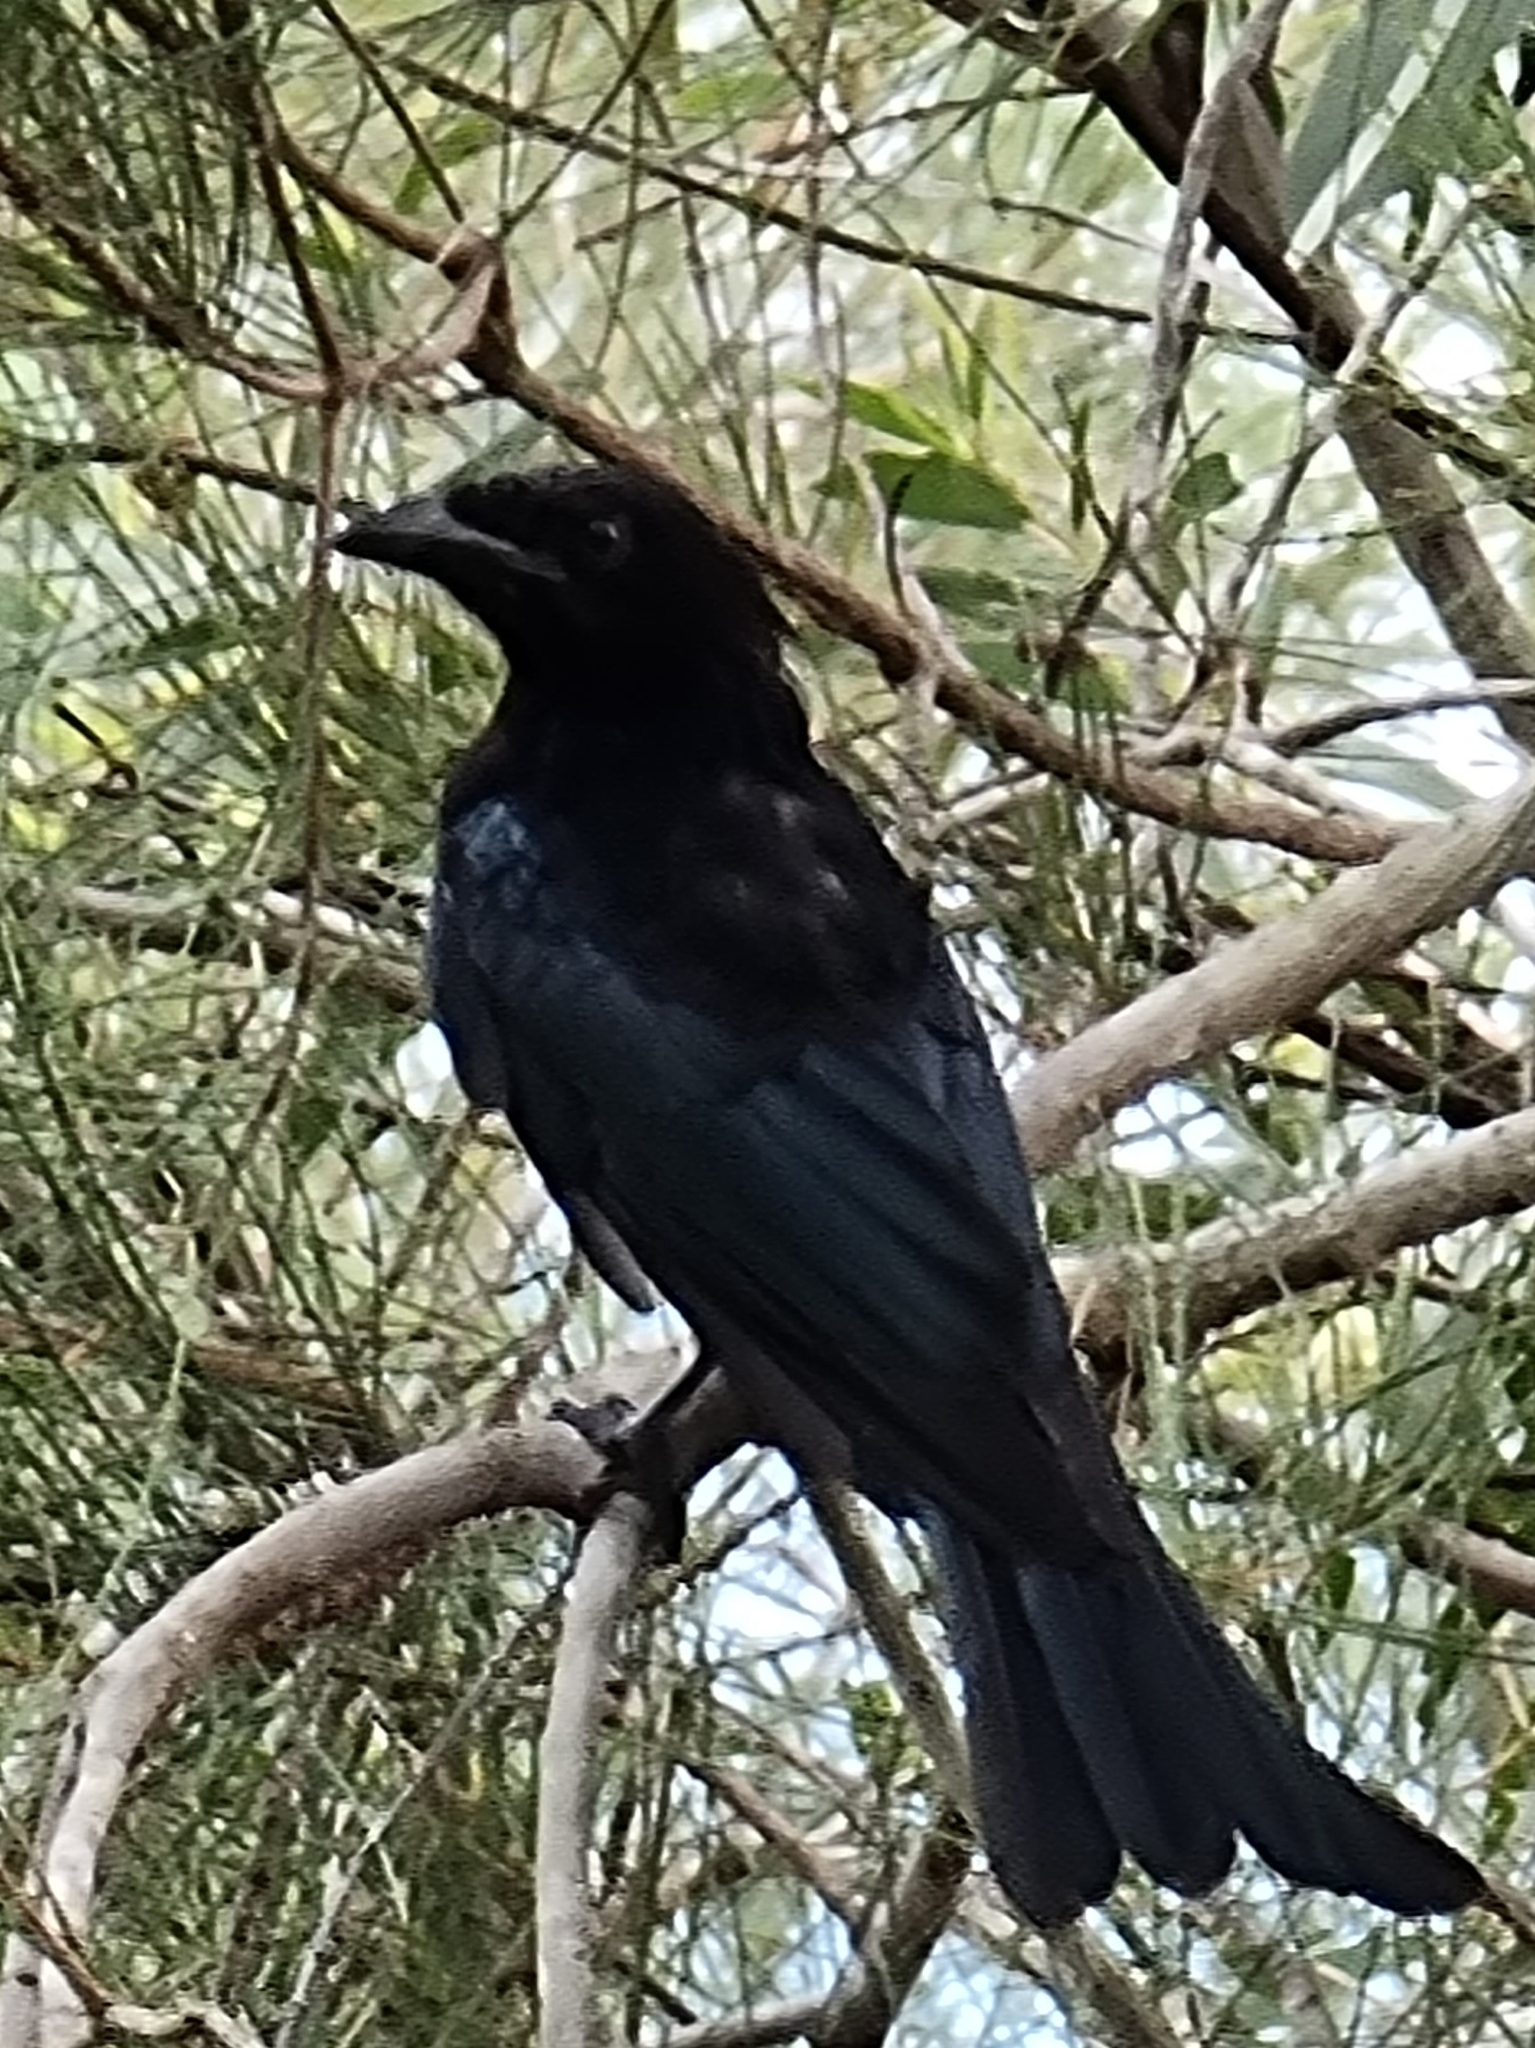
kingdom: Animalia
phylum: Chordata
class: Aves
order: Passeriformes
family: Dicruridae
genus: Dicrurus
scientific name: Dicrurus bracteatus
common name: Spangled drongo
